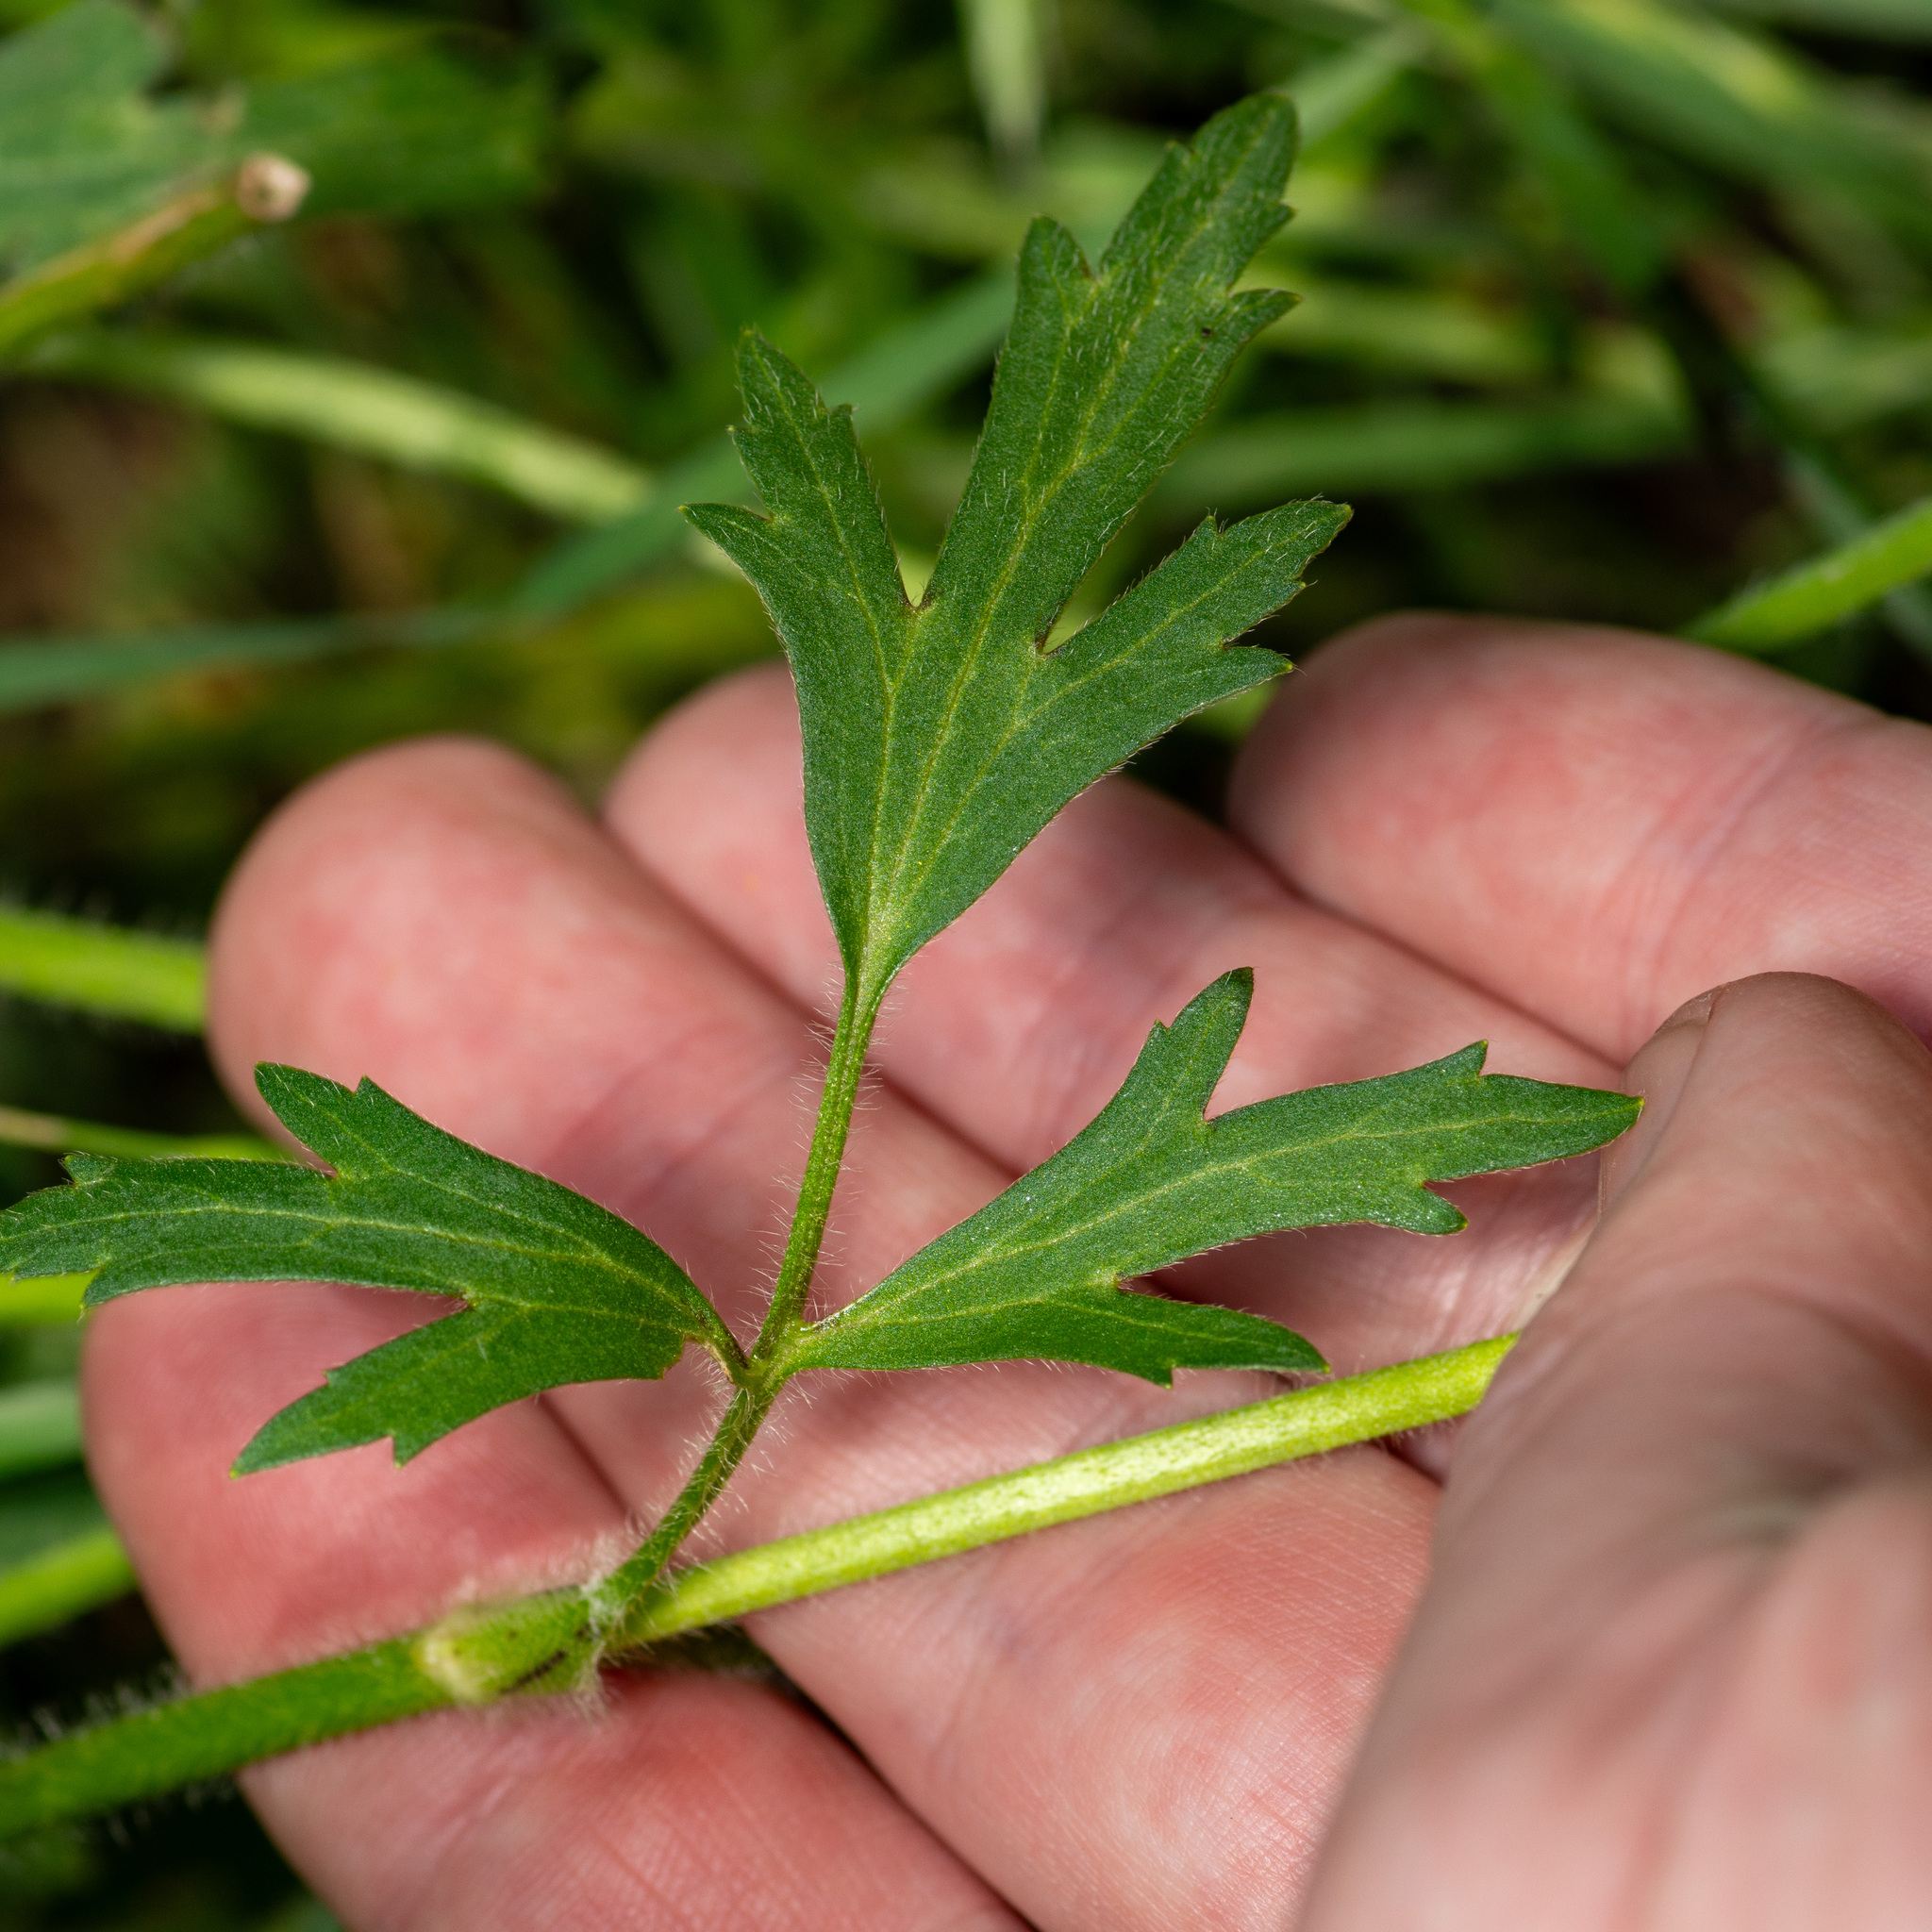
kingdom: Plantae
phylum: Tracheophyta
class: Magnoliopsida
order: Ranunculales
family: Ranunculaceae
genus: Ranunculus
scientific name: Ranunculus macranthus
